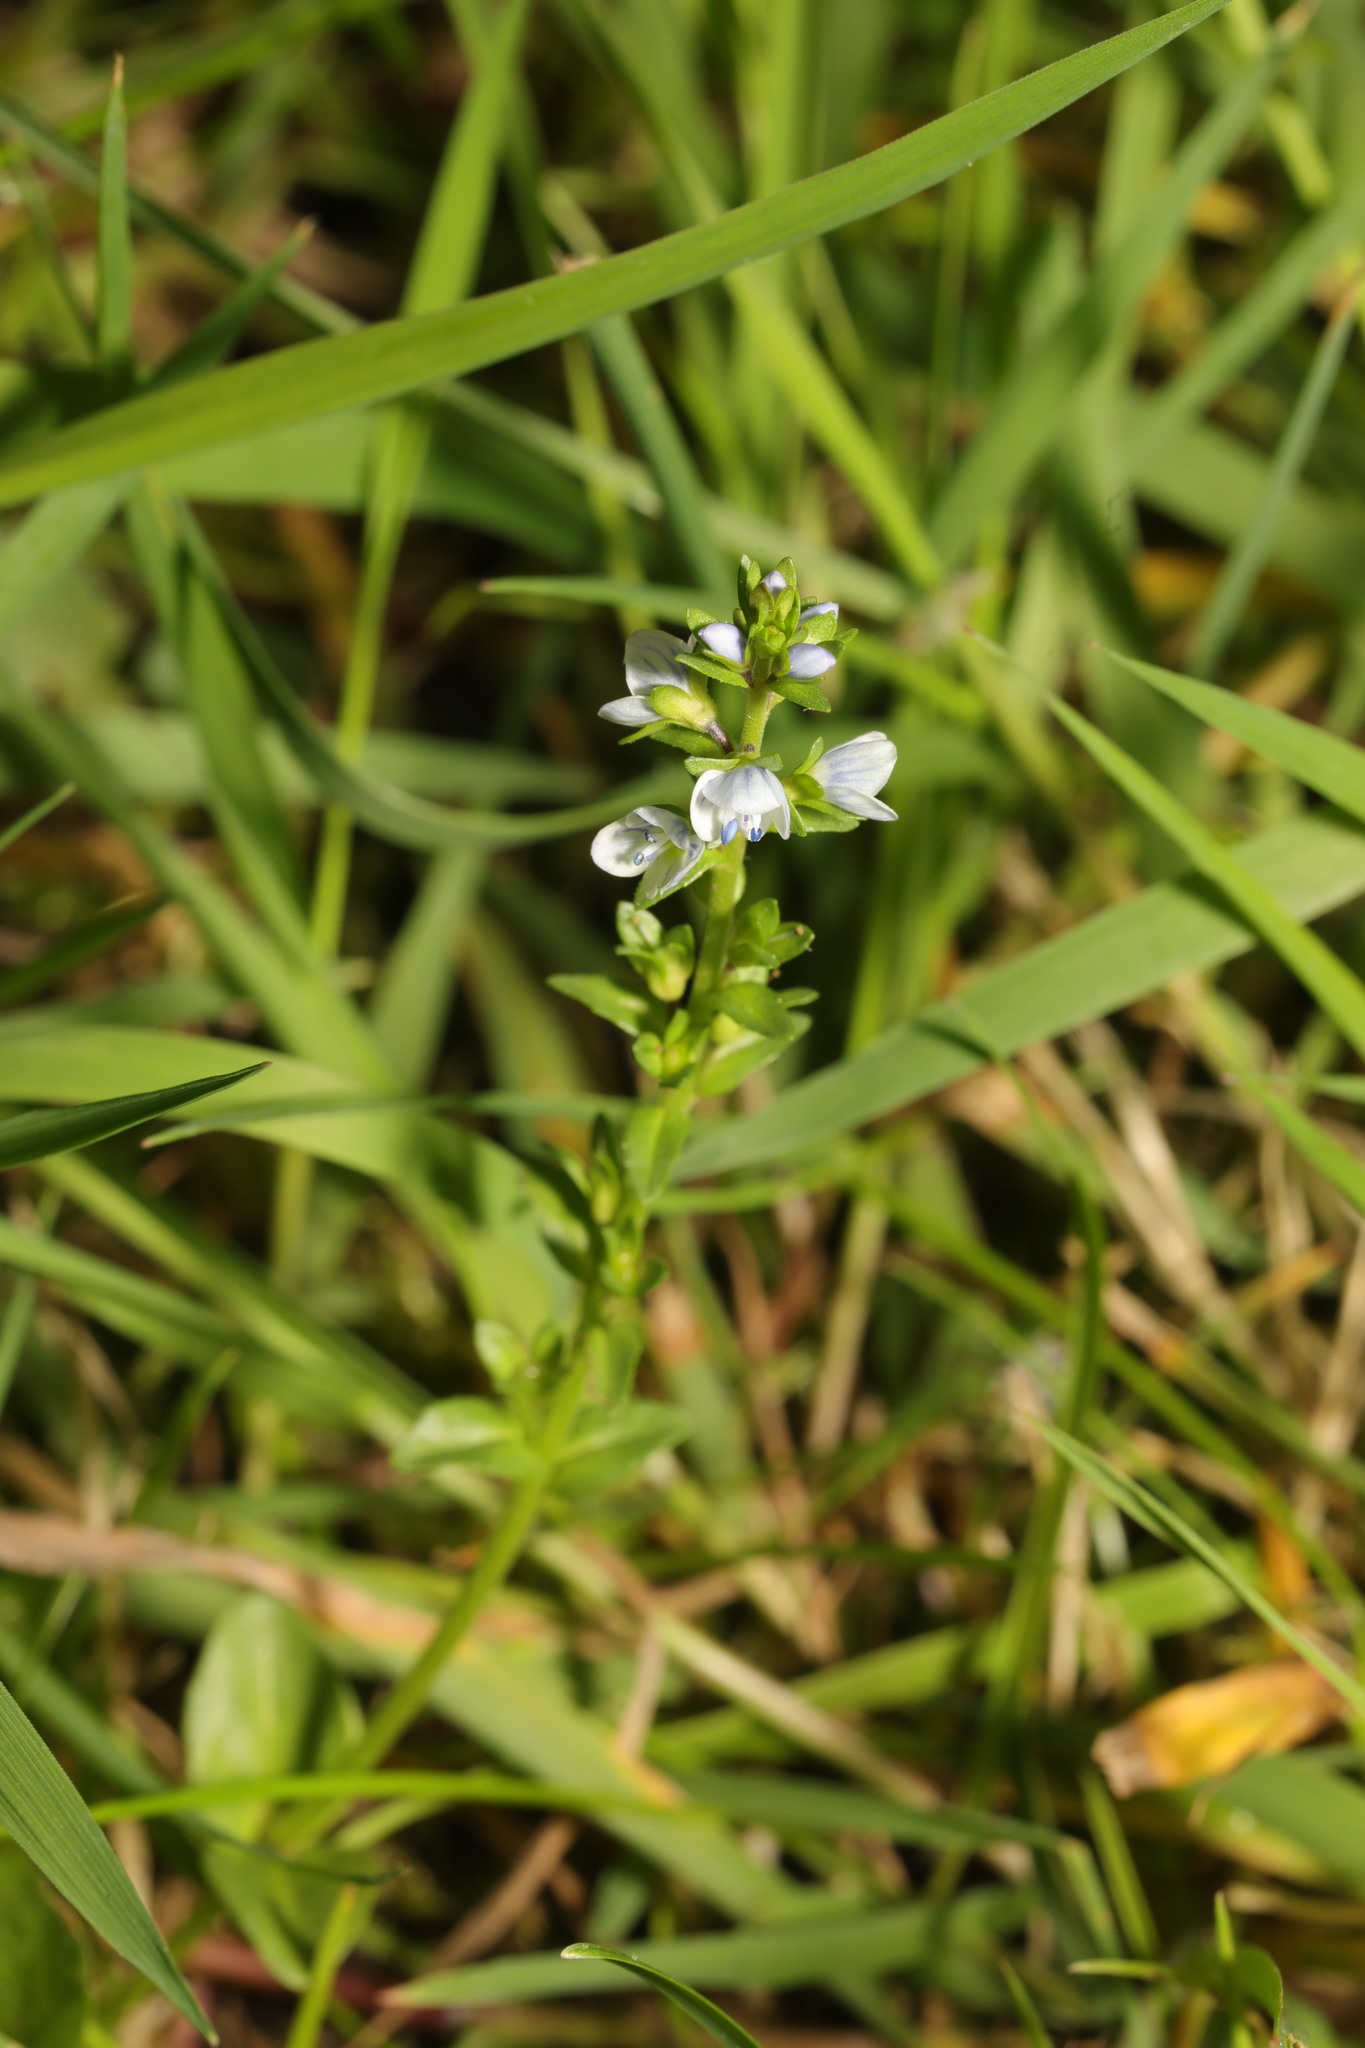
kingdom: Plantae
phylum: Tracheophyta
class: Magnoliopsida
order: Lamiales
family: Plantaginaceae
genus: Veronica
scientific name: Veronica serpyllifolia
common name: Thyme-leaved speedwell
